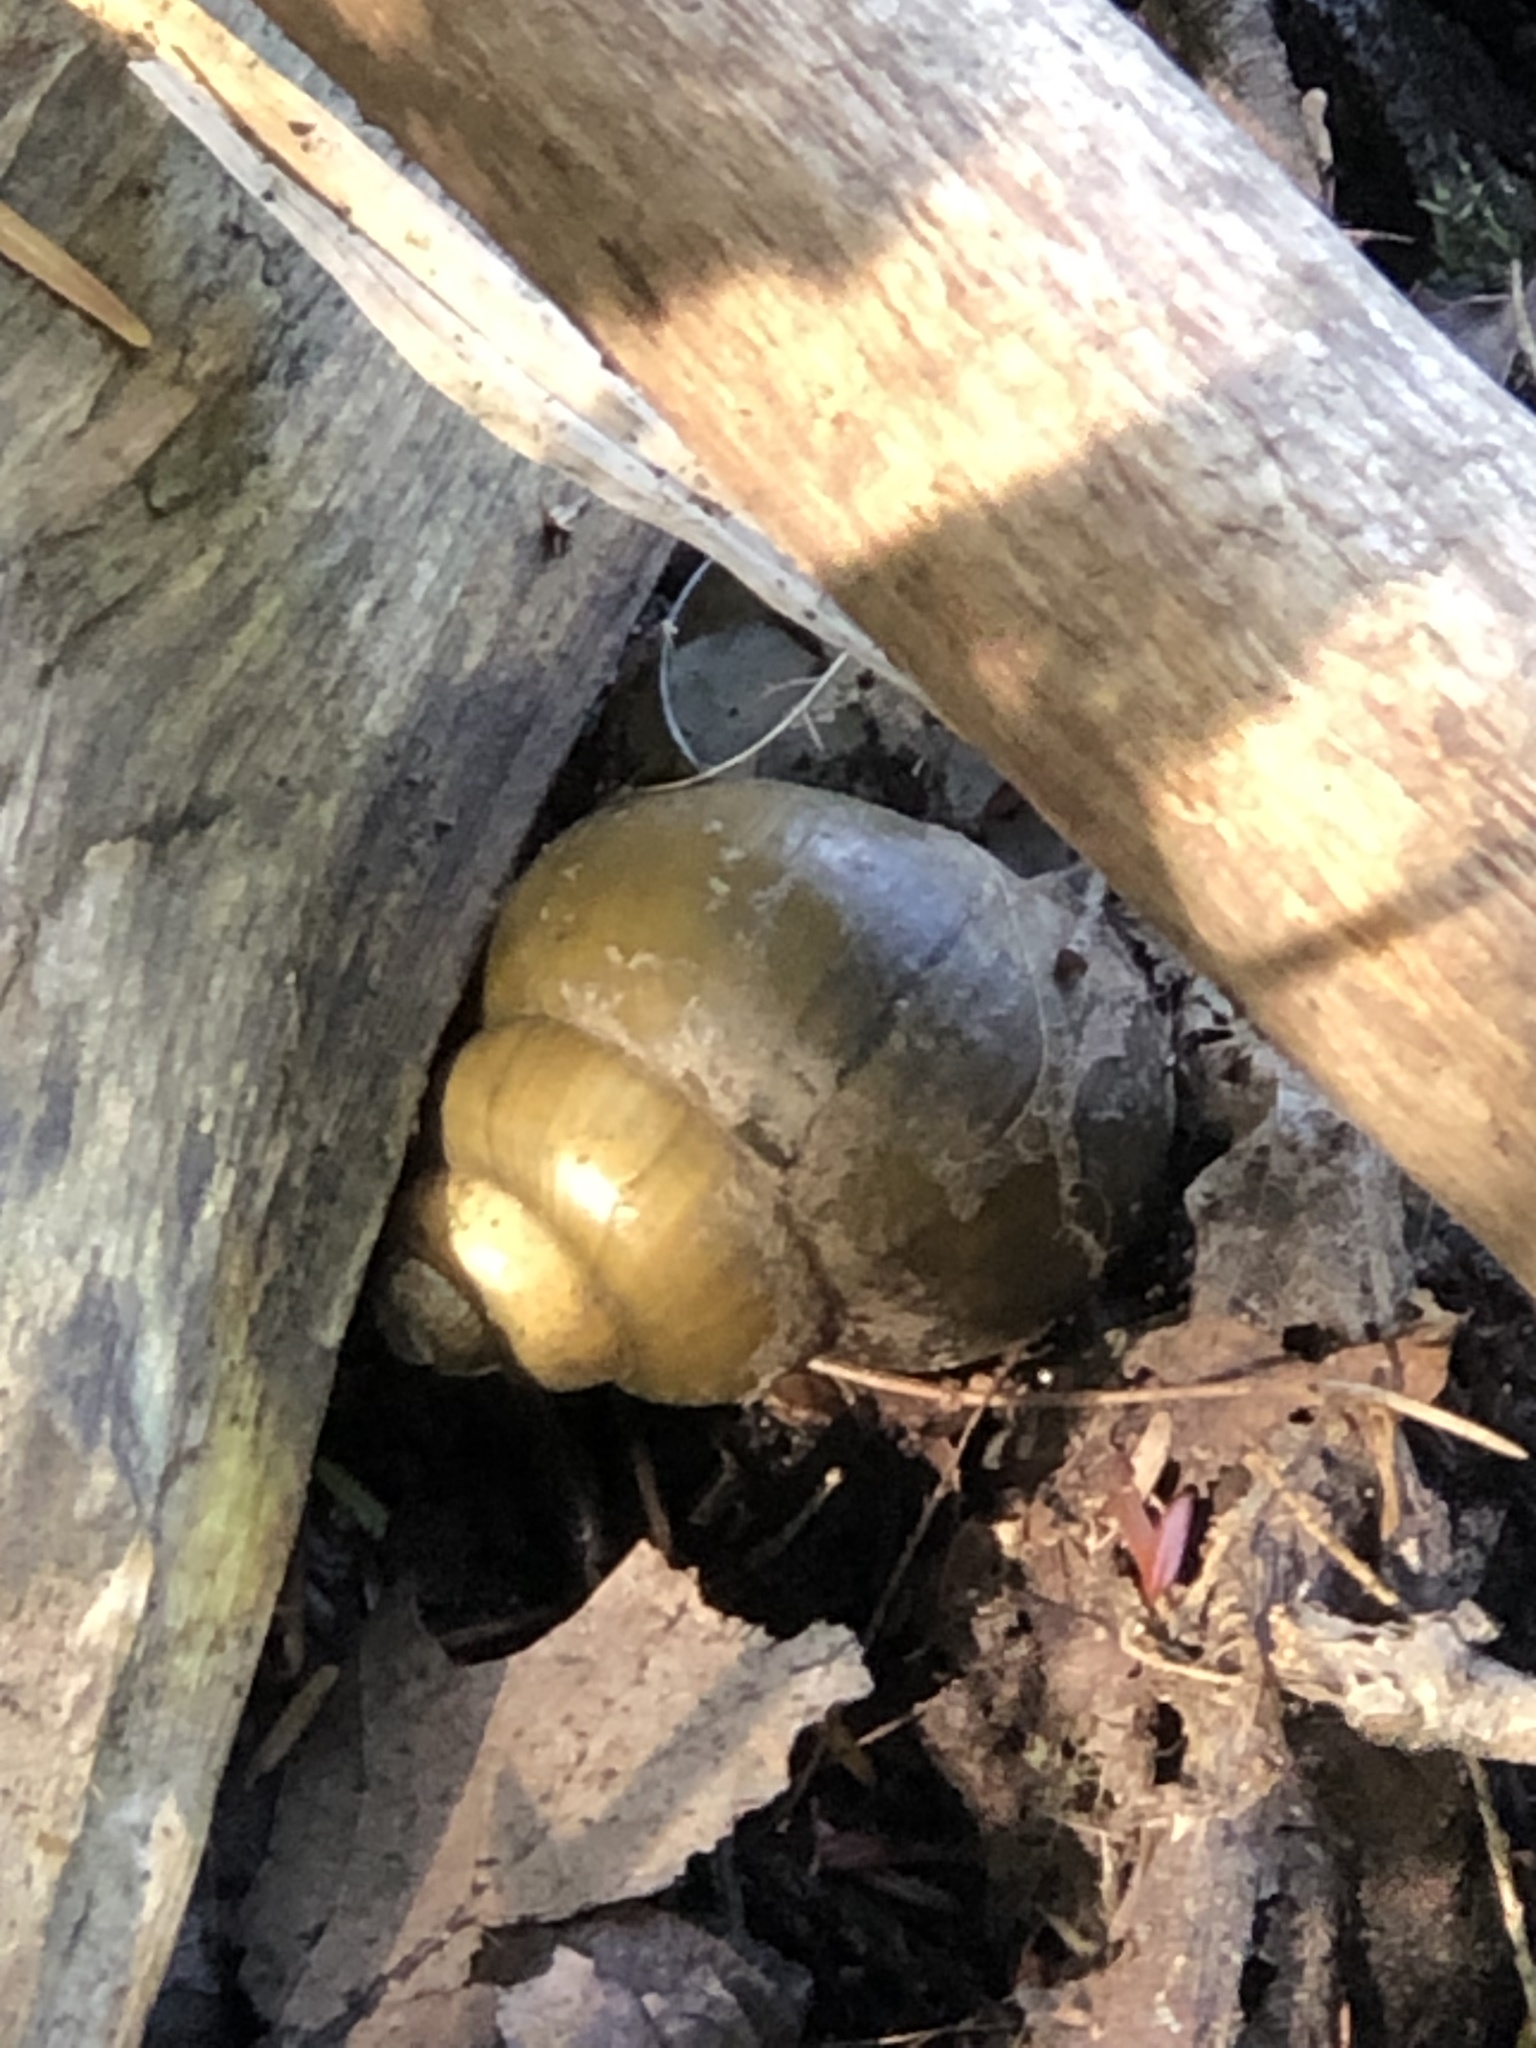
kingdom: Animalia
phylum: Mollusca
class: Gastropoda
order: Architaenioglossa
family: Viviparidae
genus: Cipangopaludina
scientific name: Cipangopaludina chinensis
